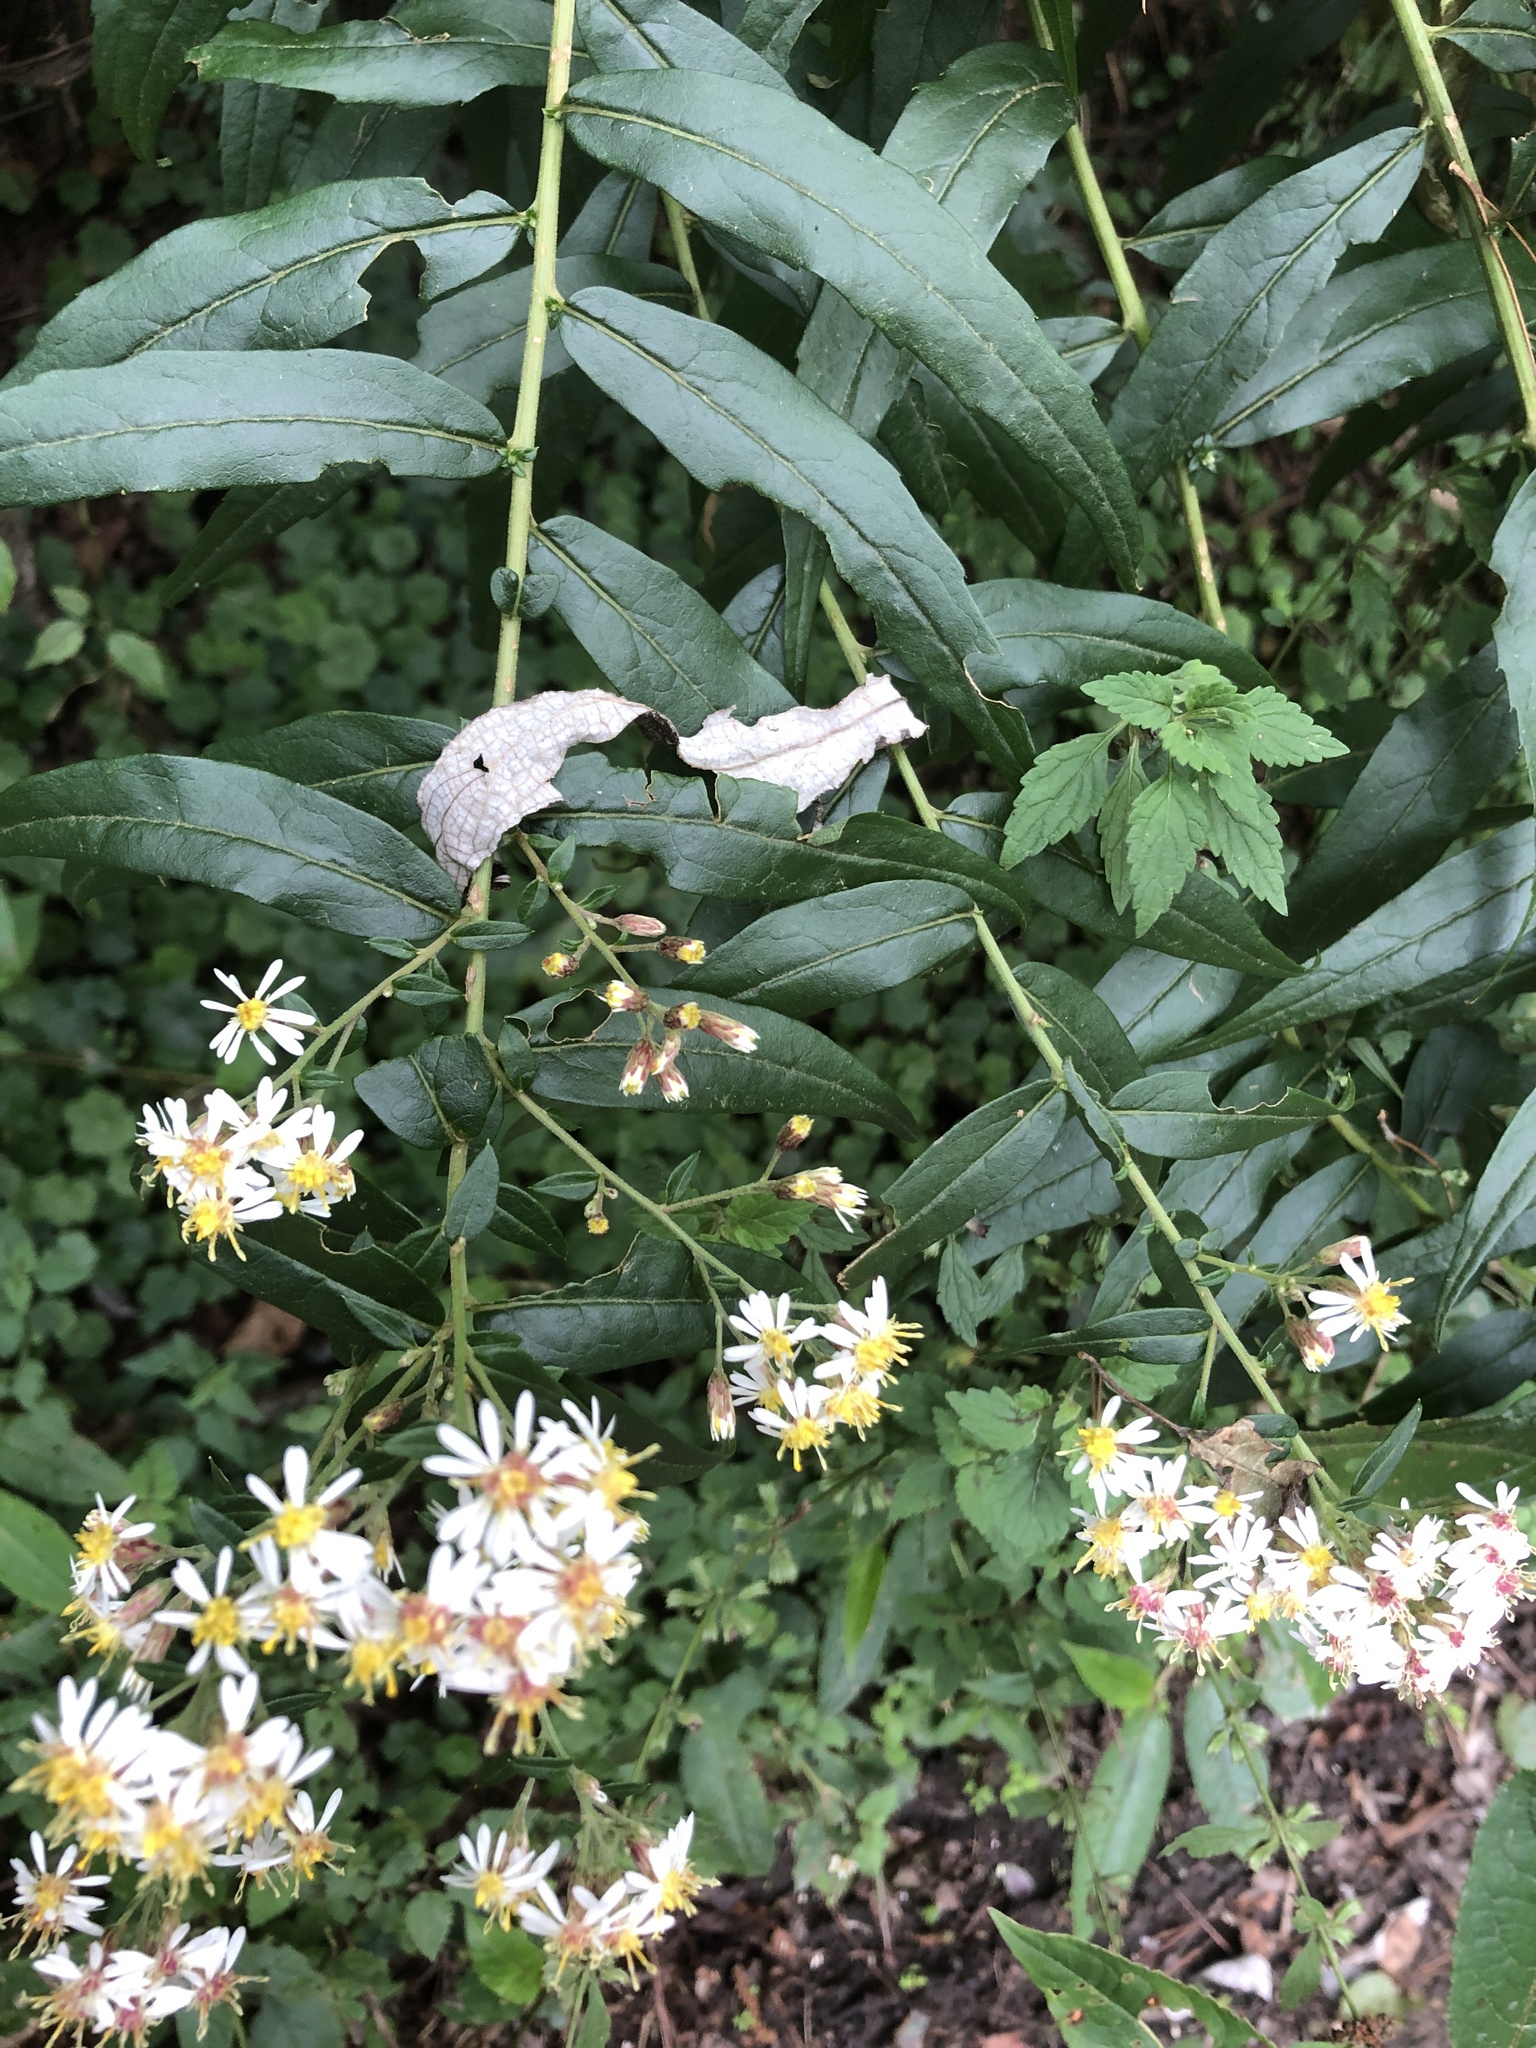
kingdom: Plantae
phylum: Tracheophyta
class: Magnoliopsida
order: Asterales
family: Asteraceae
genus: Aster
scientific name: Aster taiwanensis
